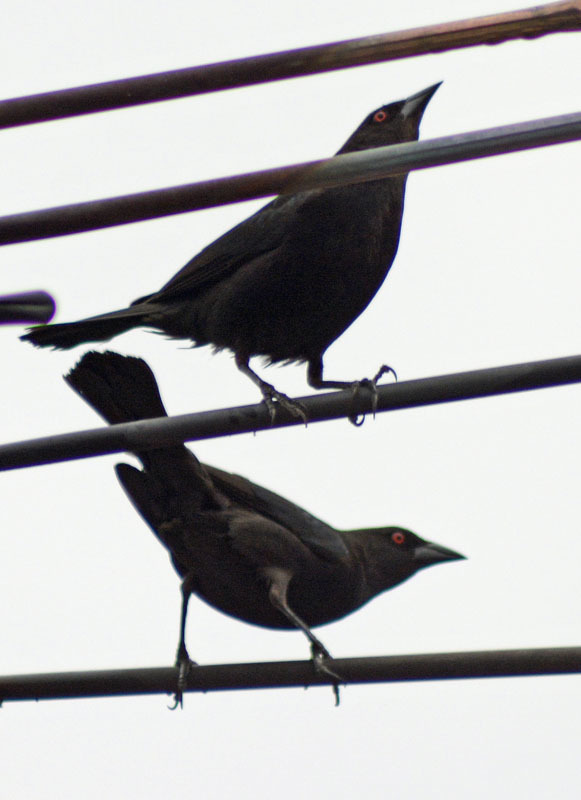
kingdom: Animalia
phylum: Chordata
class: Aves
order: Passeriformes
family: Icteridae
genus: Molothrus
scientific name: Molothrus aeneus
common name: Bronzed cowbird
